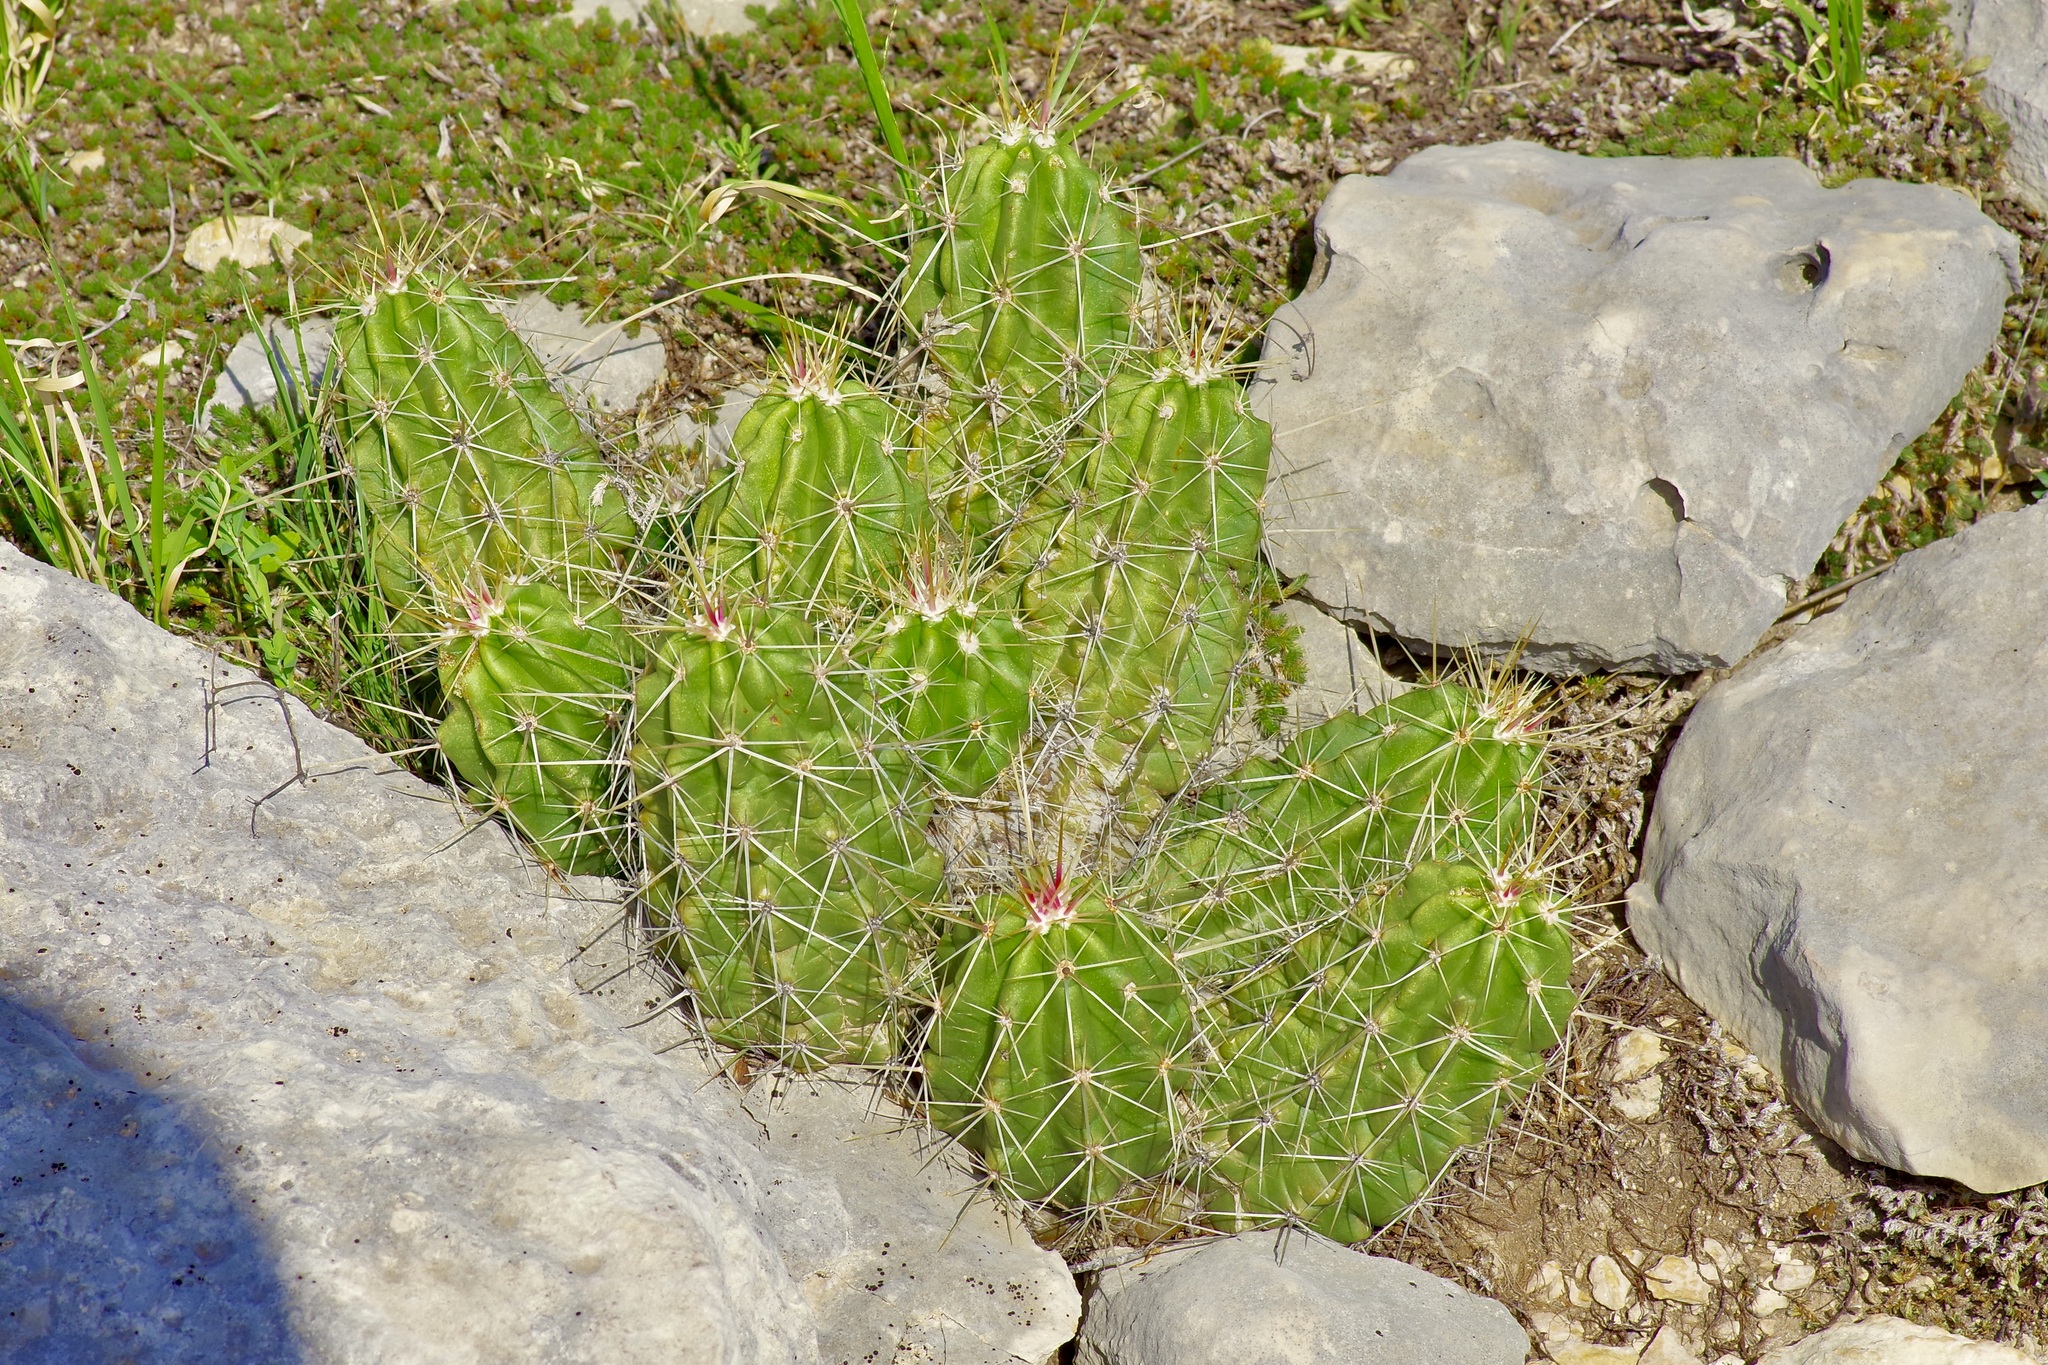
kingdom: Plantae
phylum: Tracheophyta
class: Magnoliopsida
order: Caryophyllales
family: Cactaceae
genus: Echinocereus
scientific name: Echinocereus enneacanthus
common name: Pitaya
